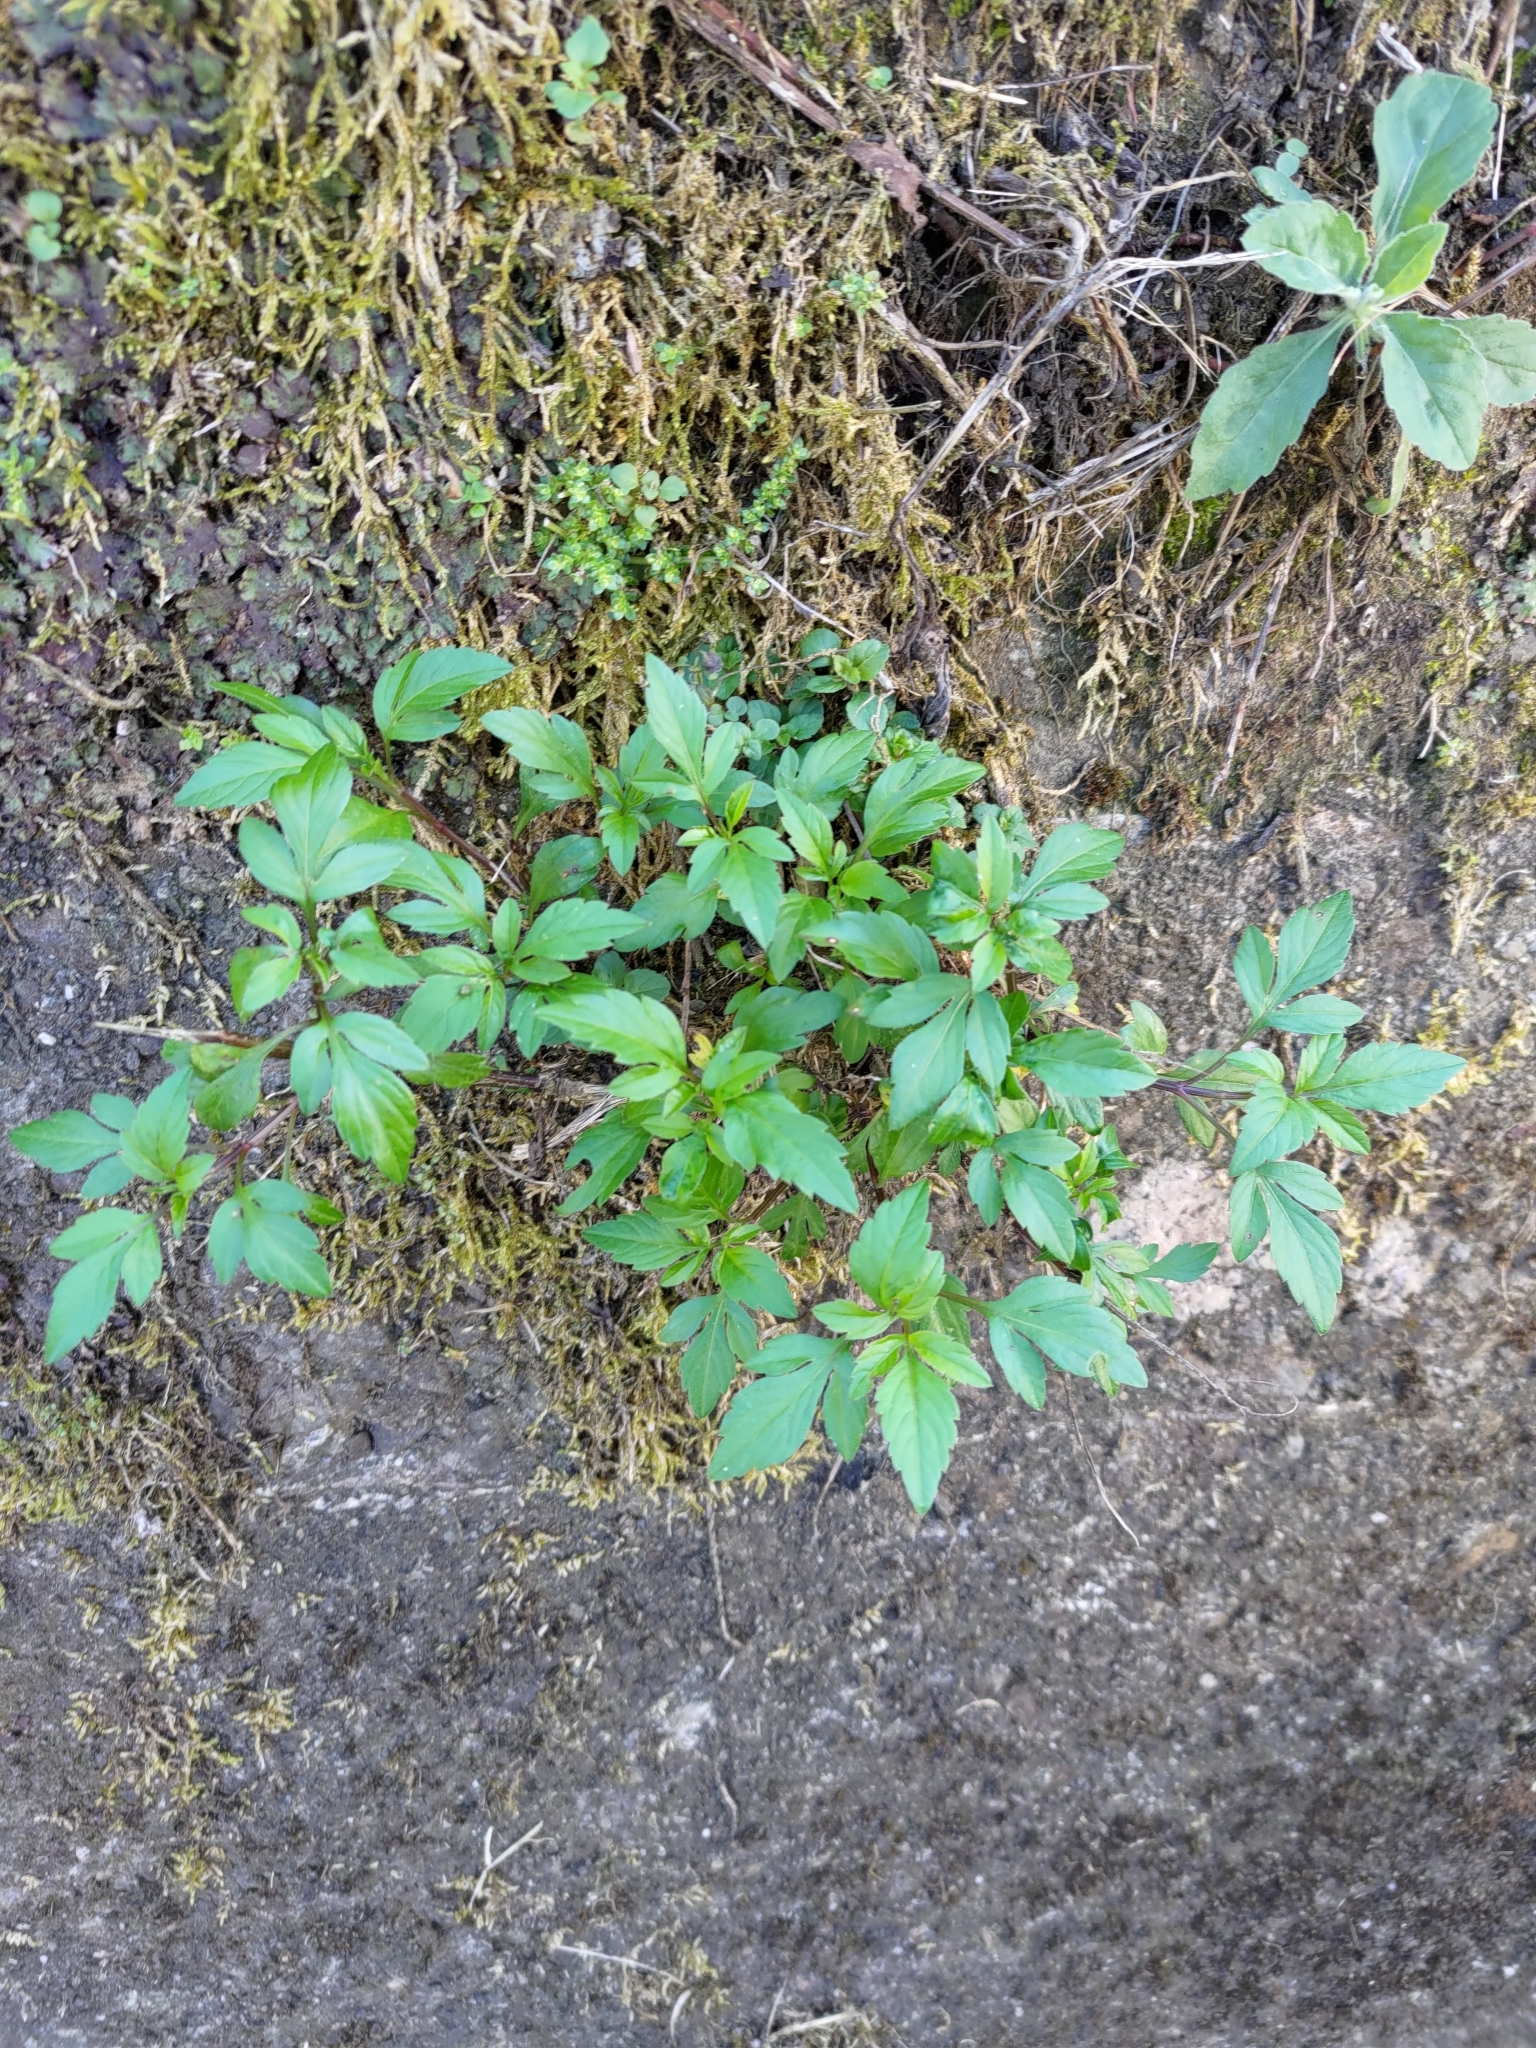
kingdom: Plantae
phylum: Tracheophyta
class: Magnoliopsida
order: Asterales
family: Asteraceae
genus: Bidens
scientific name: Bidens alba
